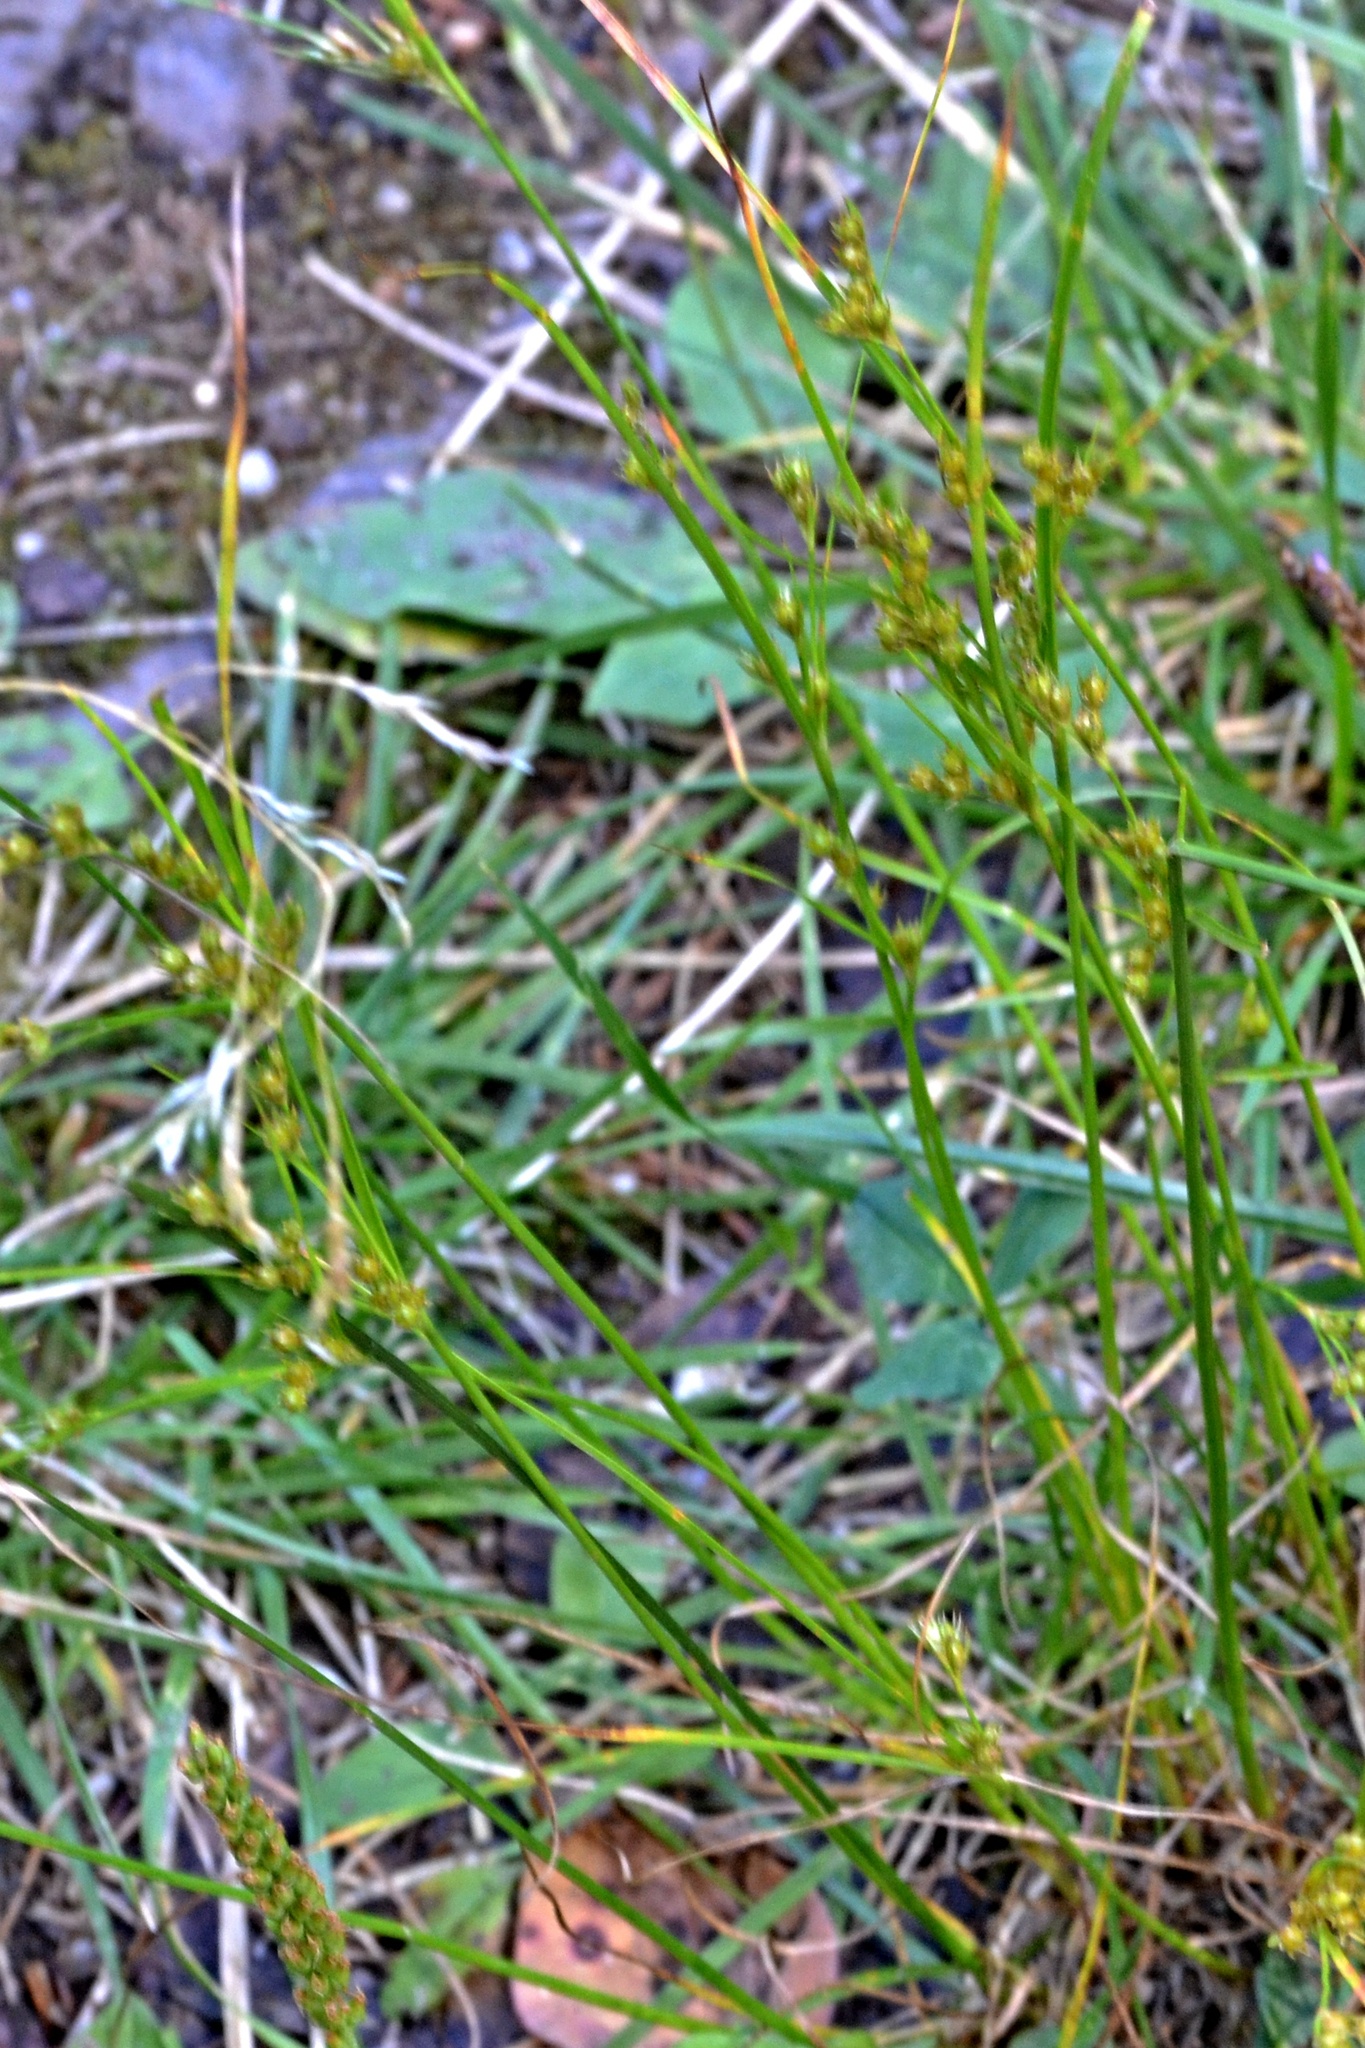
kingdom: Plantae
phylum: Tracheophyta
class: Liliopsida
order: Poales
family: Juncaceae
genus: Juncus
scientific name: Juncus tenuis
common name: Slender rush
